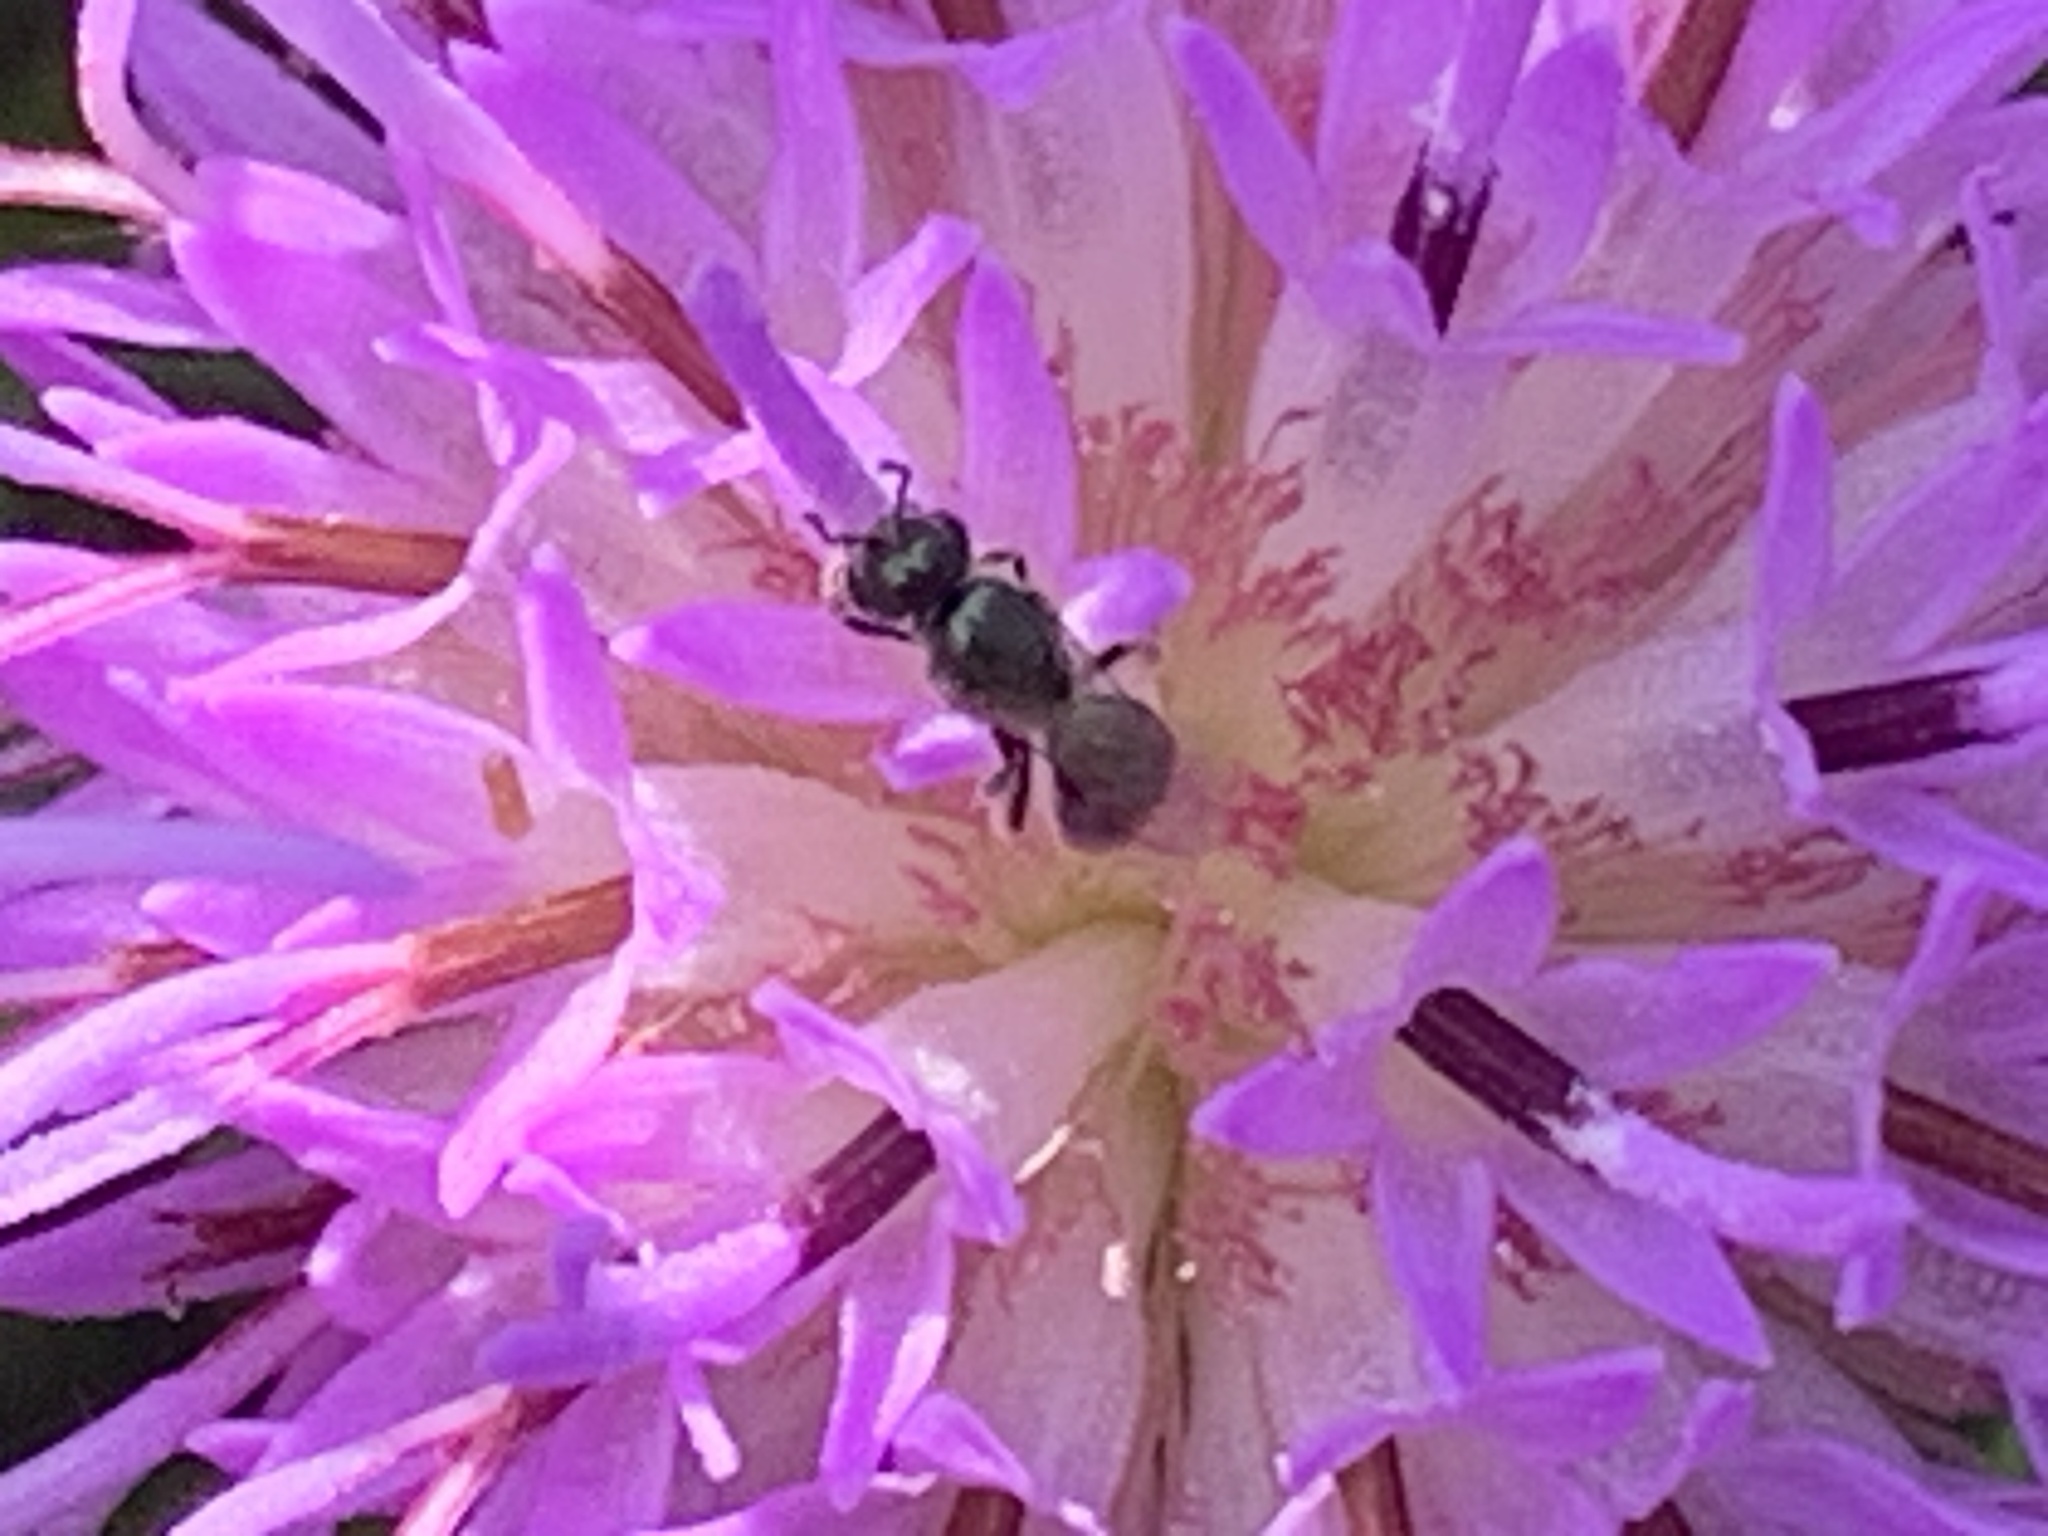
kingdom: Animalia
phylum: Arthropoda
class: Insecta
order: Hymenoptera
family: Halictidae
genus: Dialictus
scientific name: Dialictus
